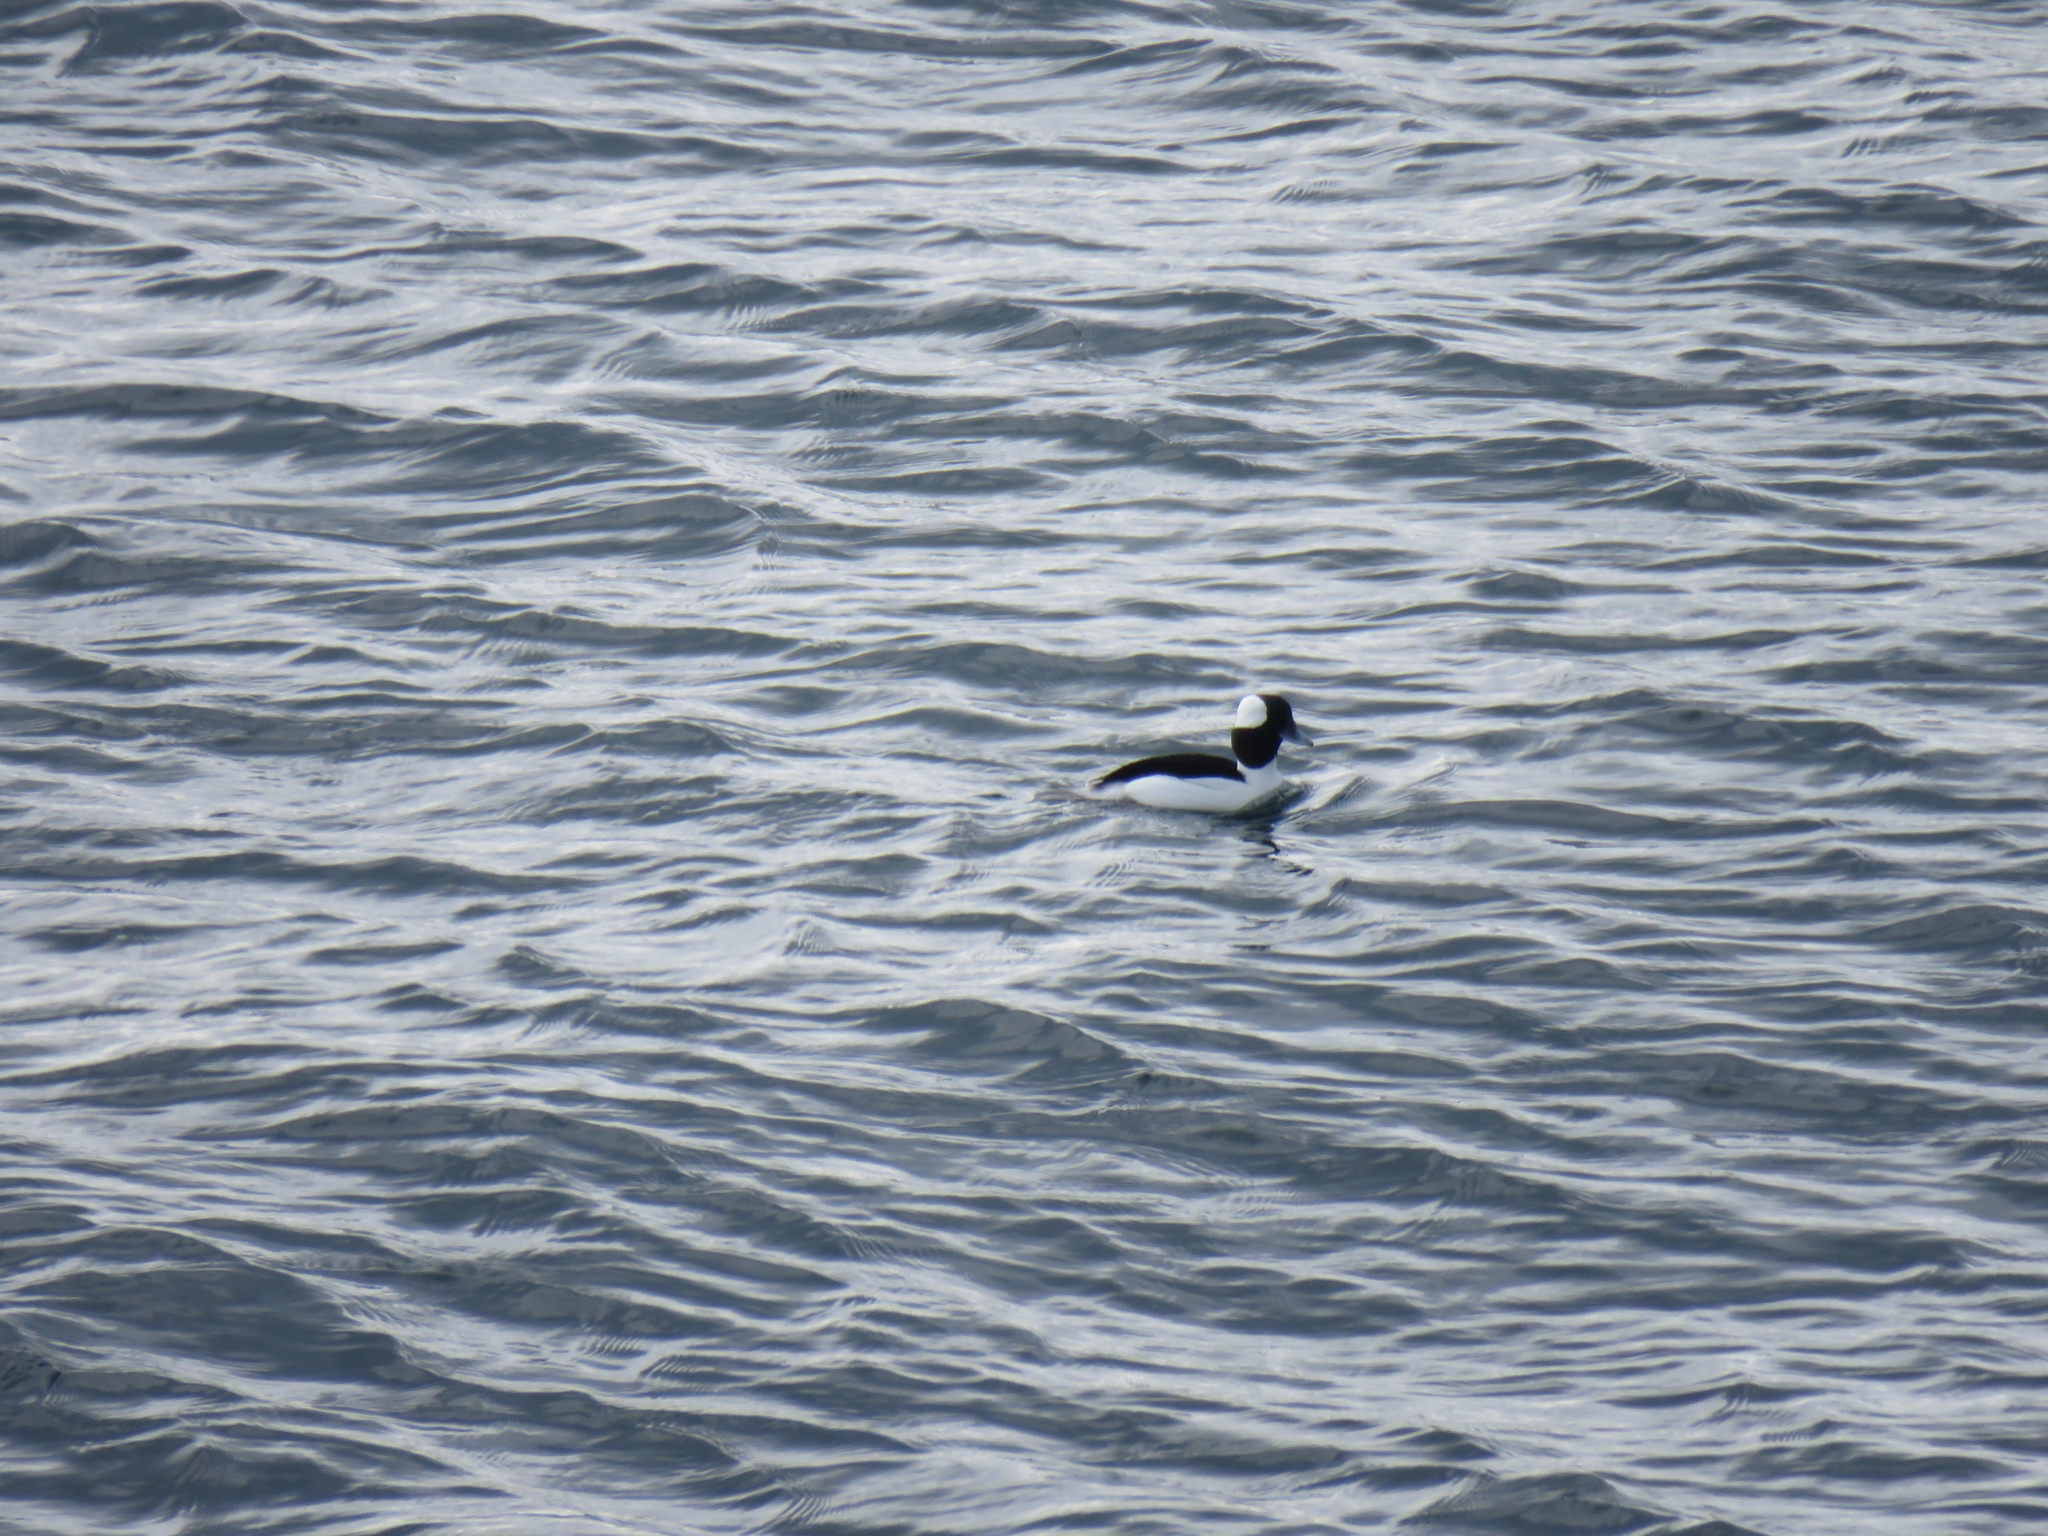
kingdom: Animalia
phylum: Chordata
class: Aves
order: Anseriformes
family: Anatidae
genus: Bucephala
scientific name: Bucephala albeola
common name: Bufflehead
